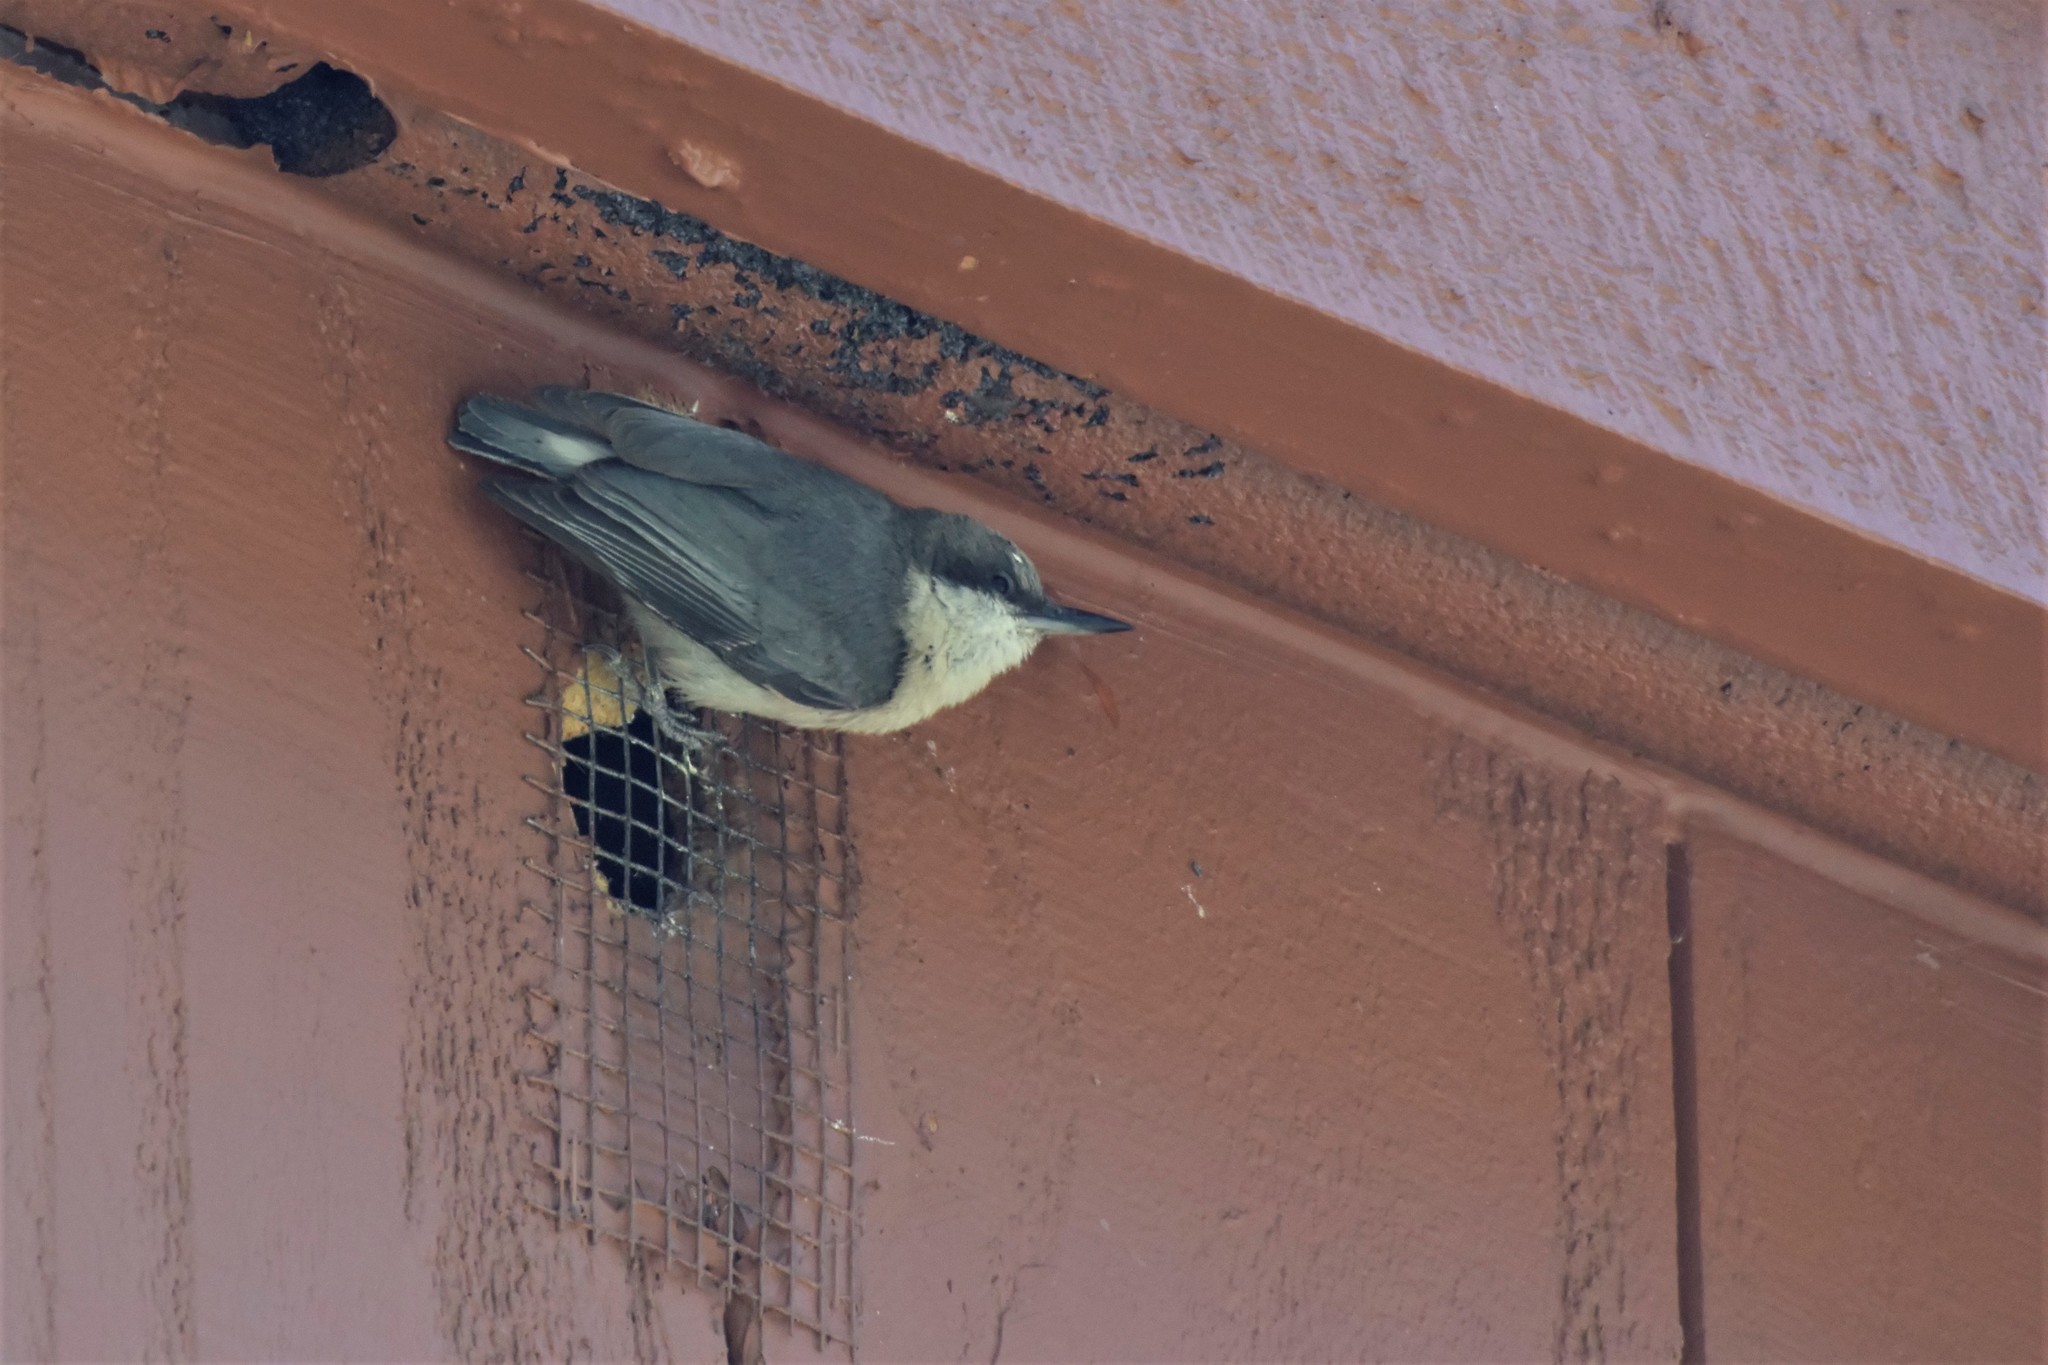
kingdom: Animalia
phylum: Chordata
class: Aves
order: Passeriformes
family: Sittidae
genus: Sitta
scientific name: Sitta pygmaea
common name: Pygmy nuthatch
